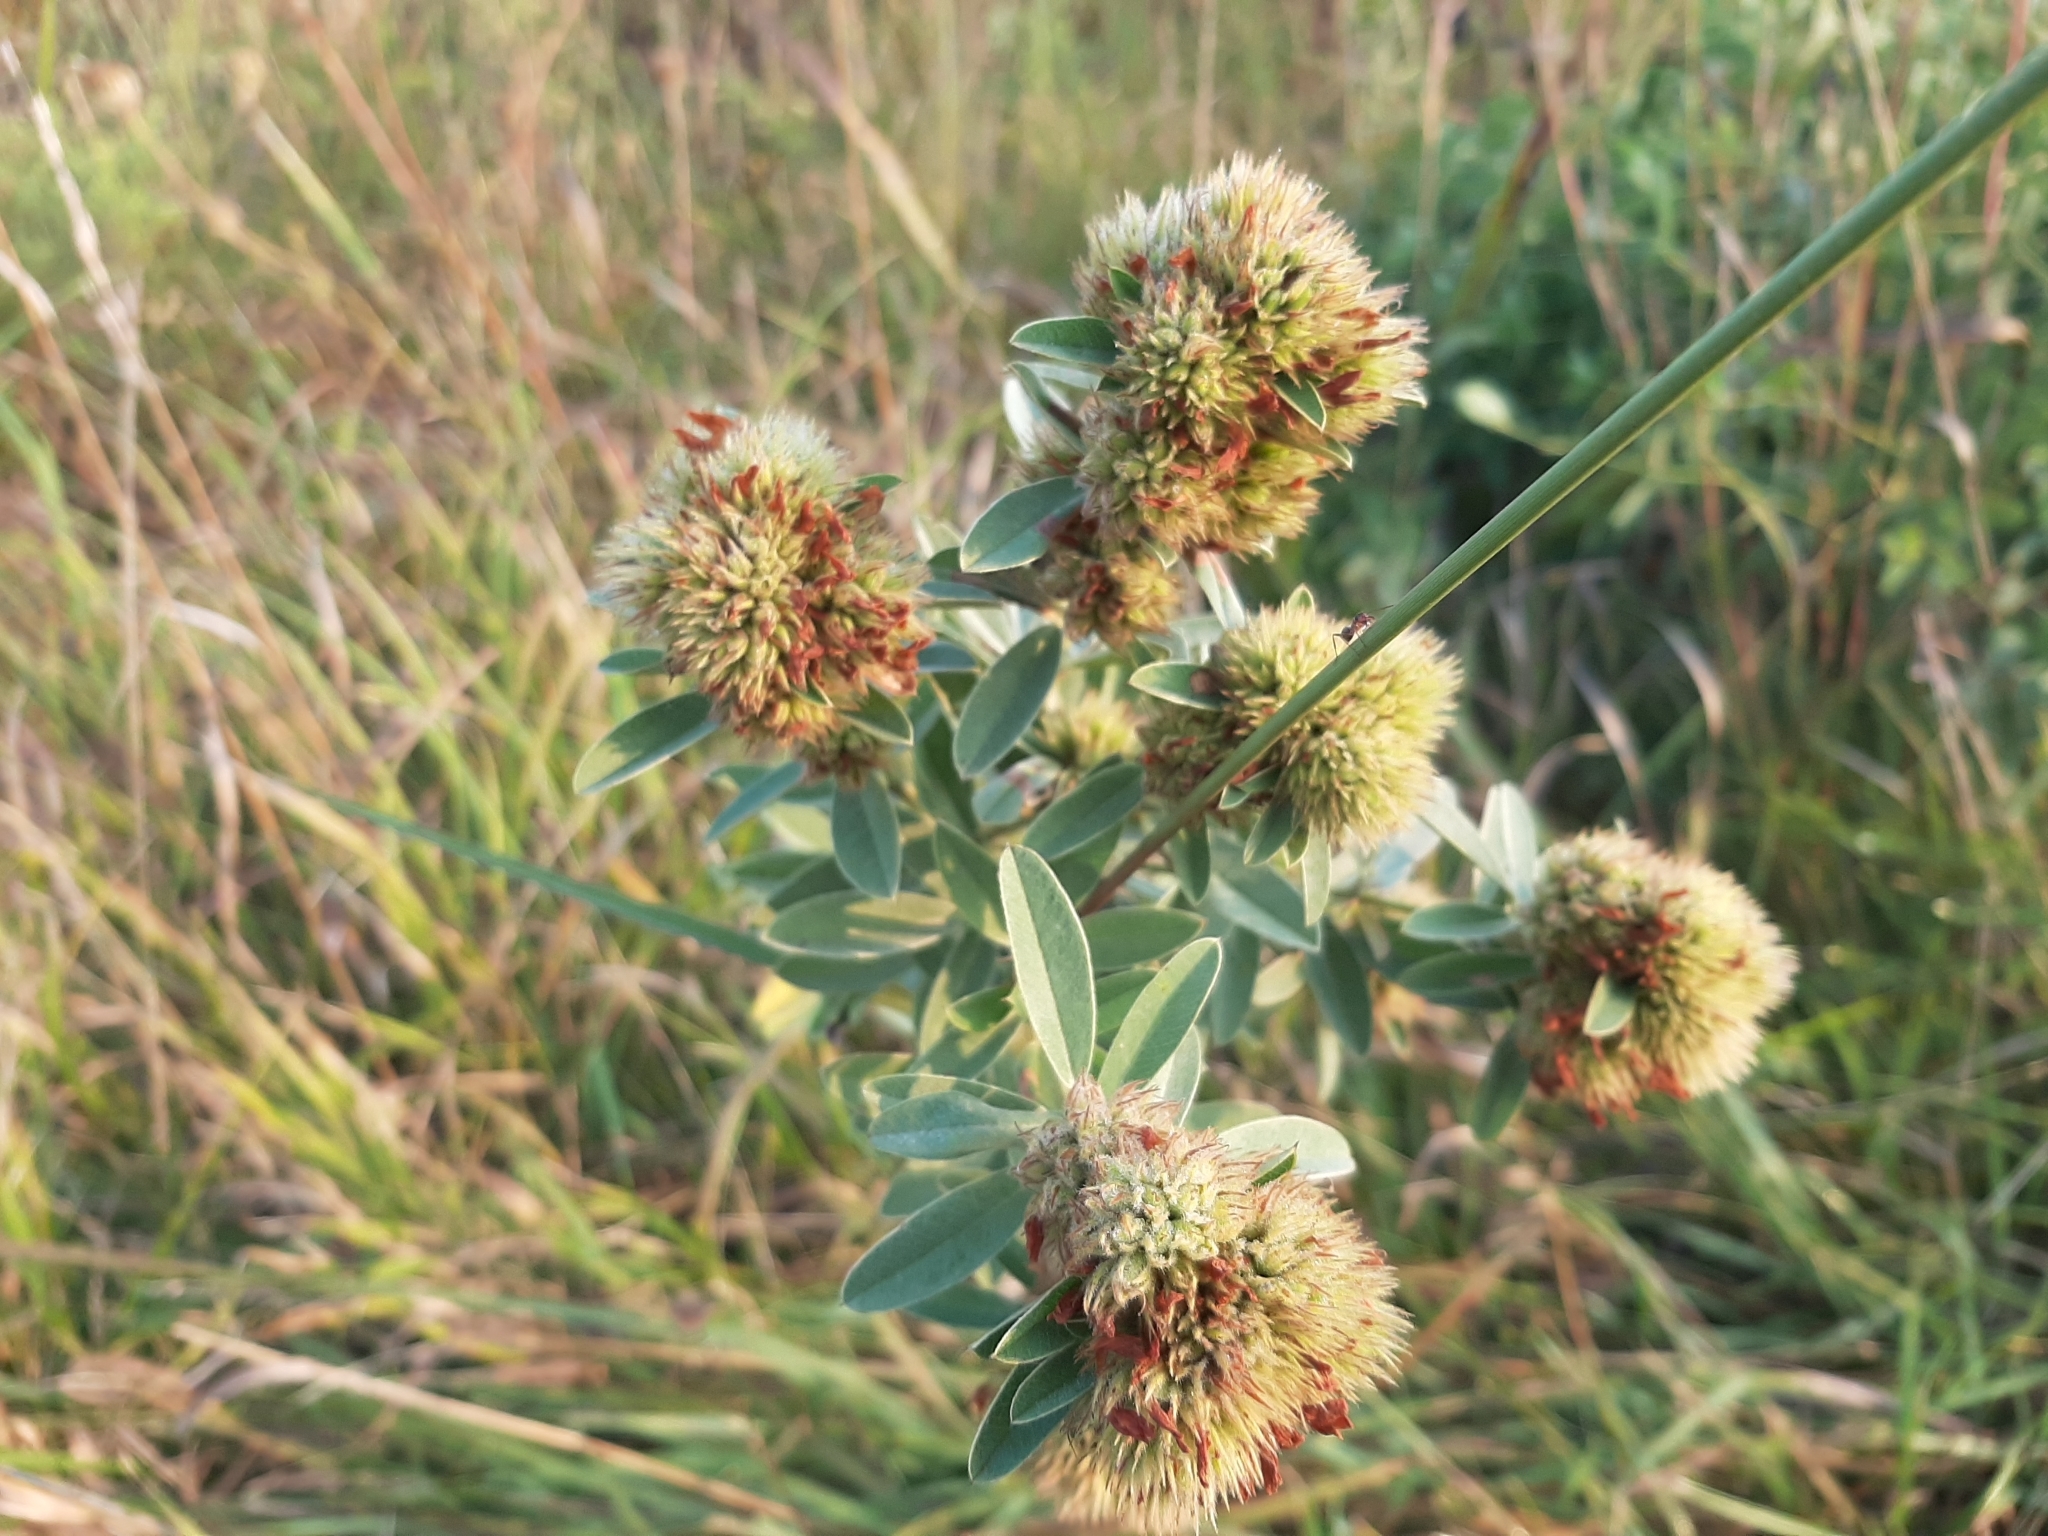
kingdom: Plantae
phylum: Tracheophyta
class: Magnoliopsida
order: Fabales
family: Fabaceae
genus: Lespedeza
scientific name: Lespedeza capitata
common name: Dusty clover
